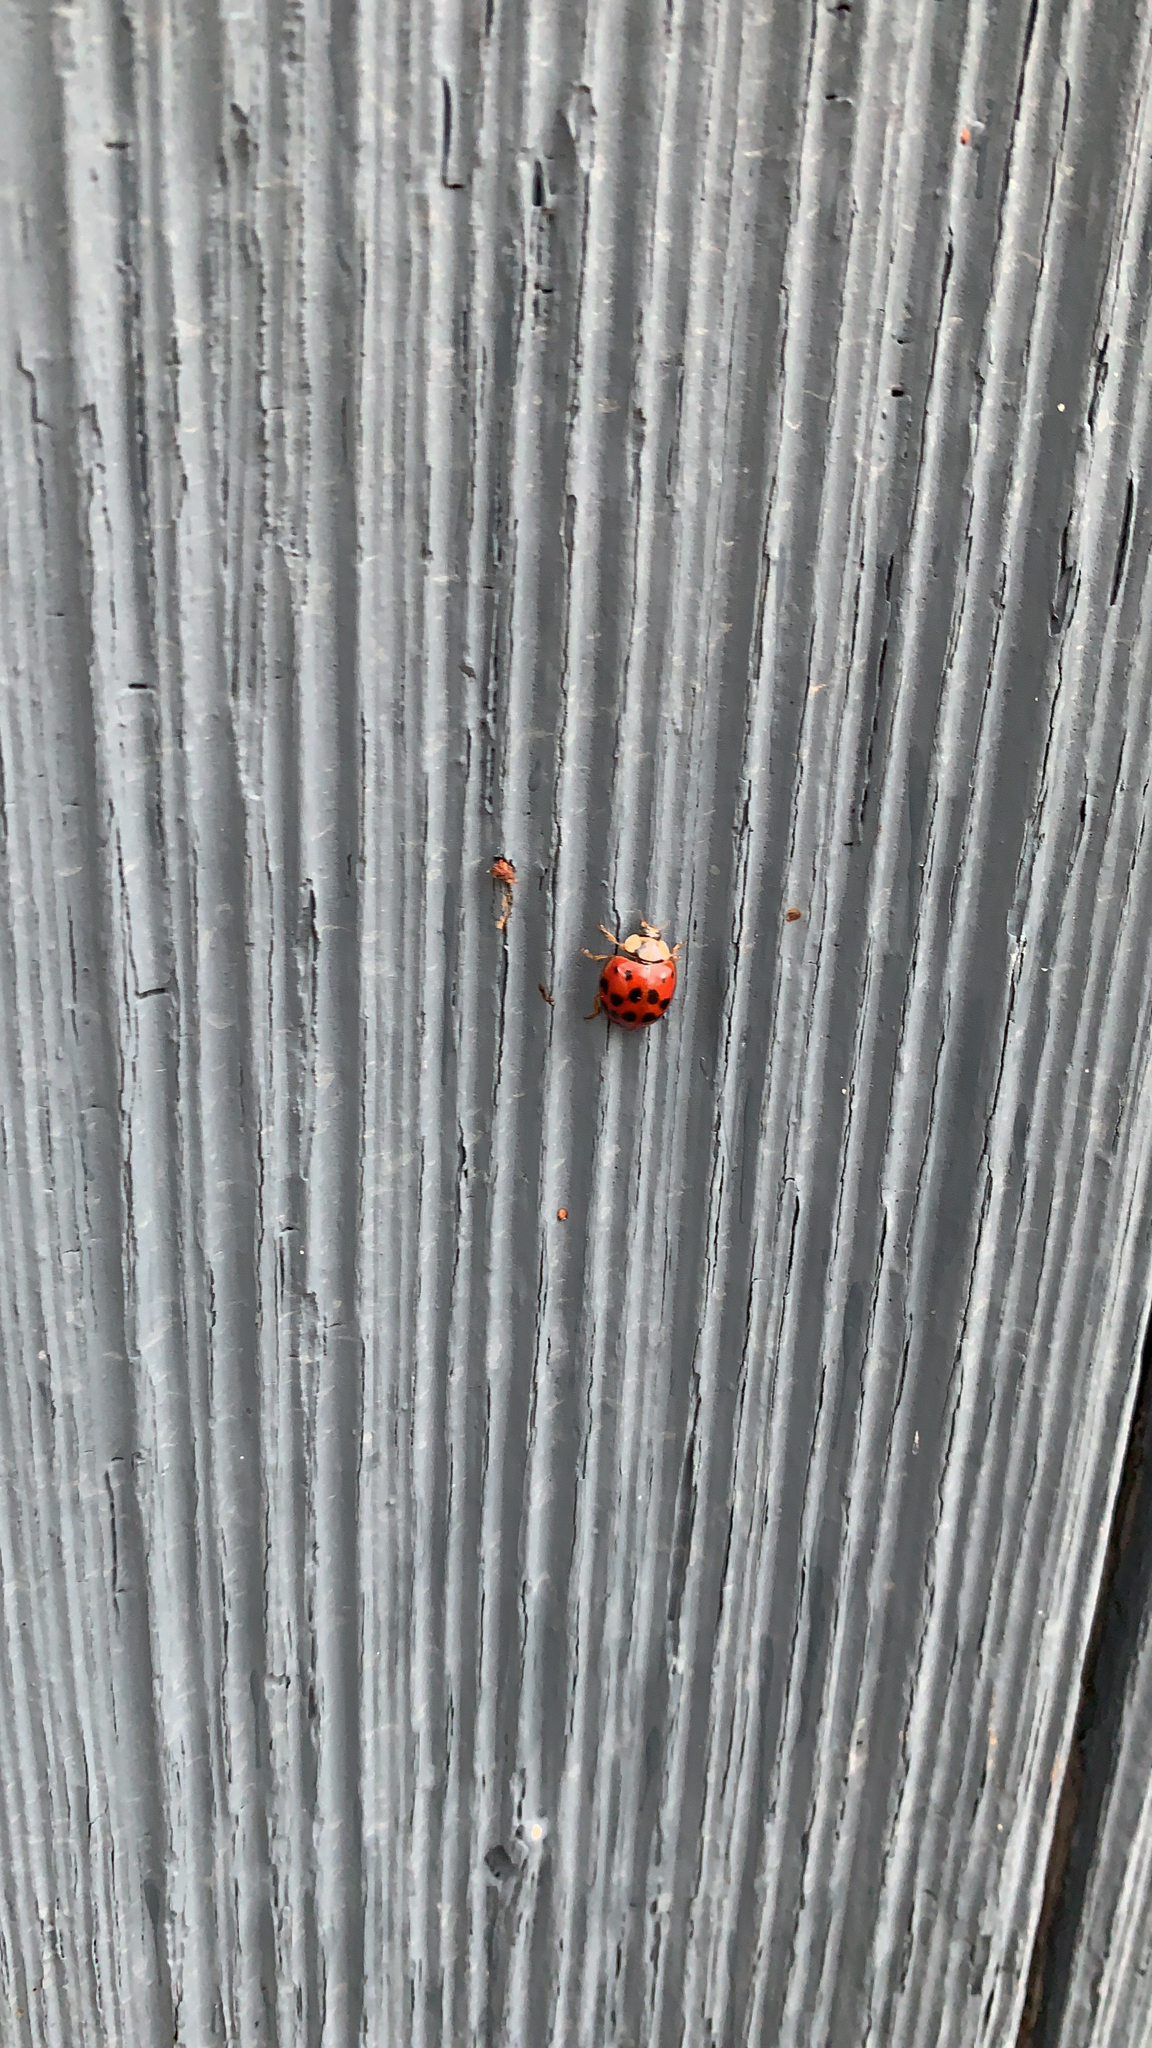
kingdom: Animalia
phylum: Arthropoda
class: Insecta
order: Coleoptera
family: Coccinellidae
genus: Harmonia
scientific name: Harmonia axyridis
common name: Harlequin ladybird
